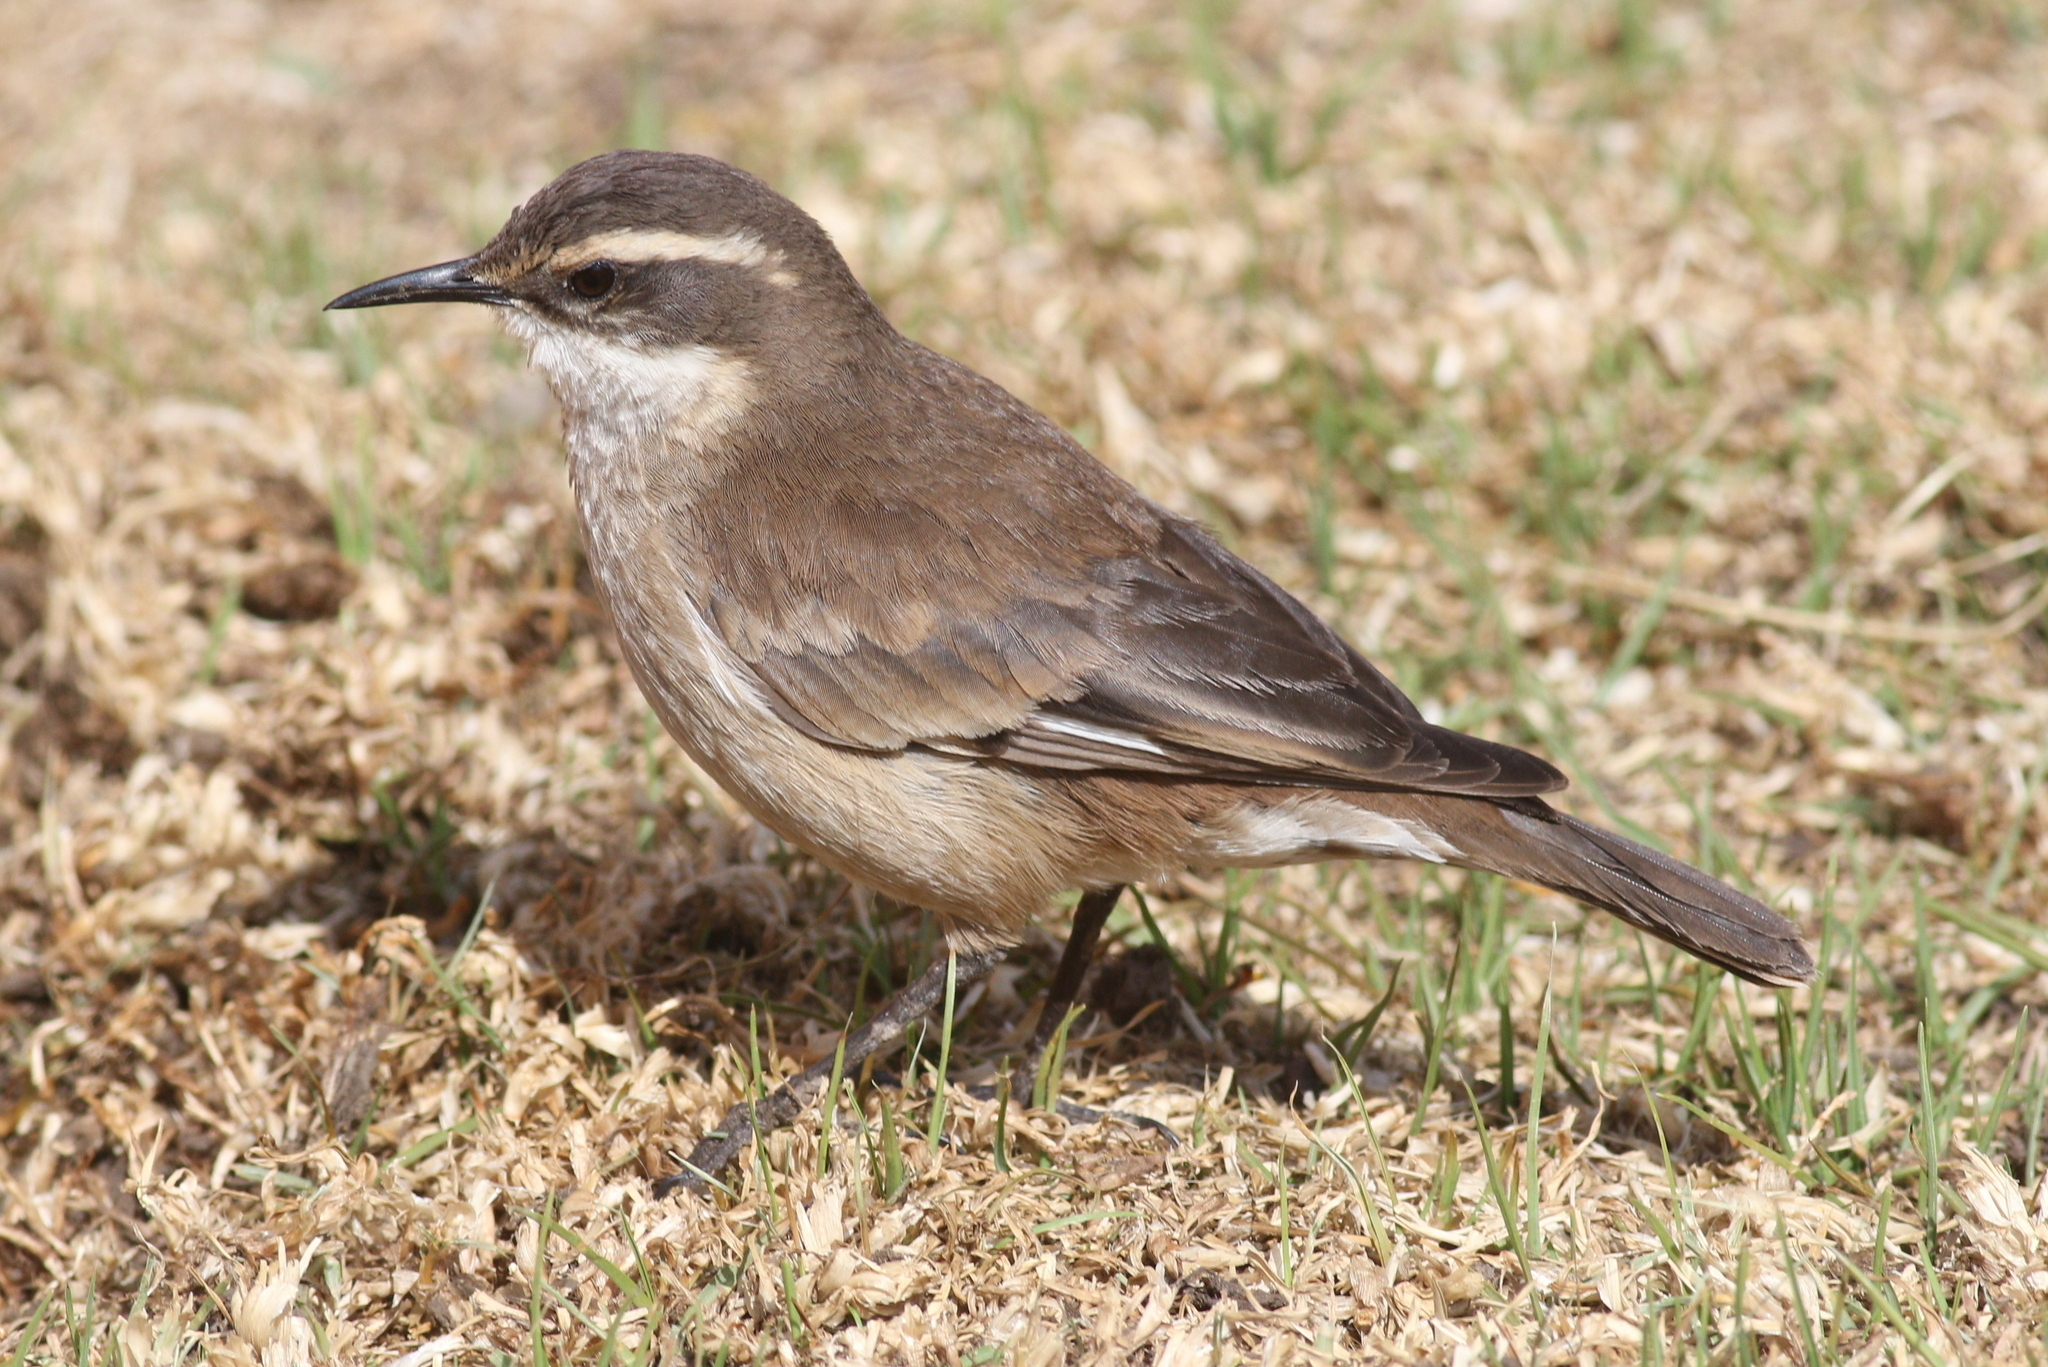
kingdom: Animalia
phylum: Chordata
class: Aves
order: Passeriformes
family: Furnariidae
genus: Cinclodes
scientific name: Cinclodes fuscus
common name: Buff-winged cinclodes
